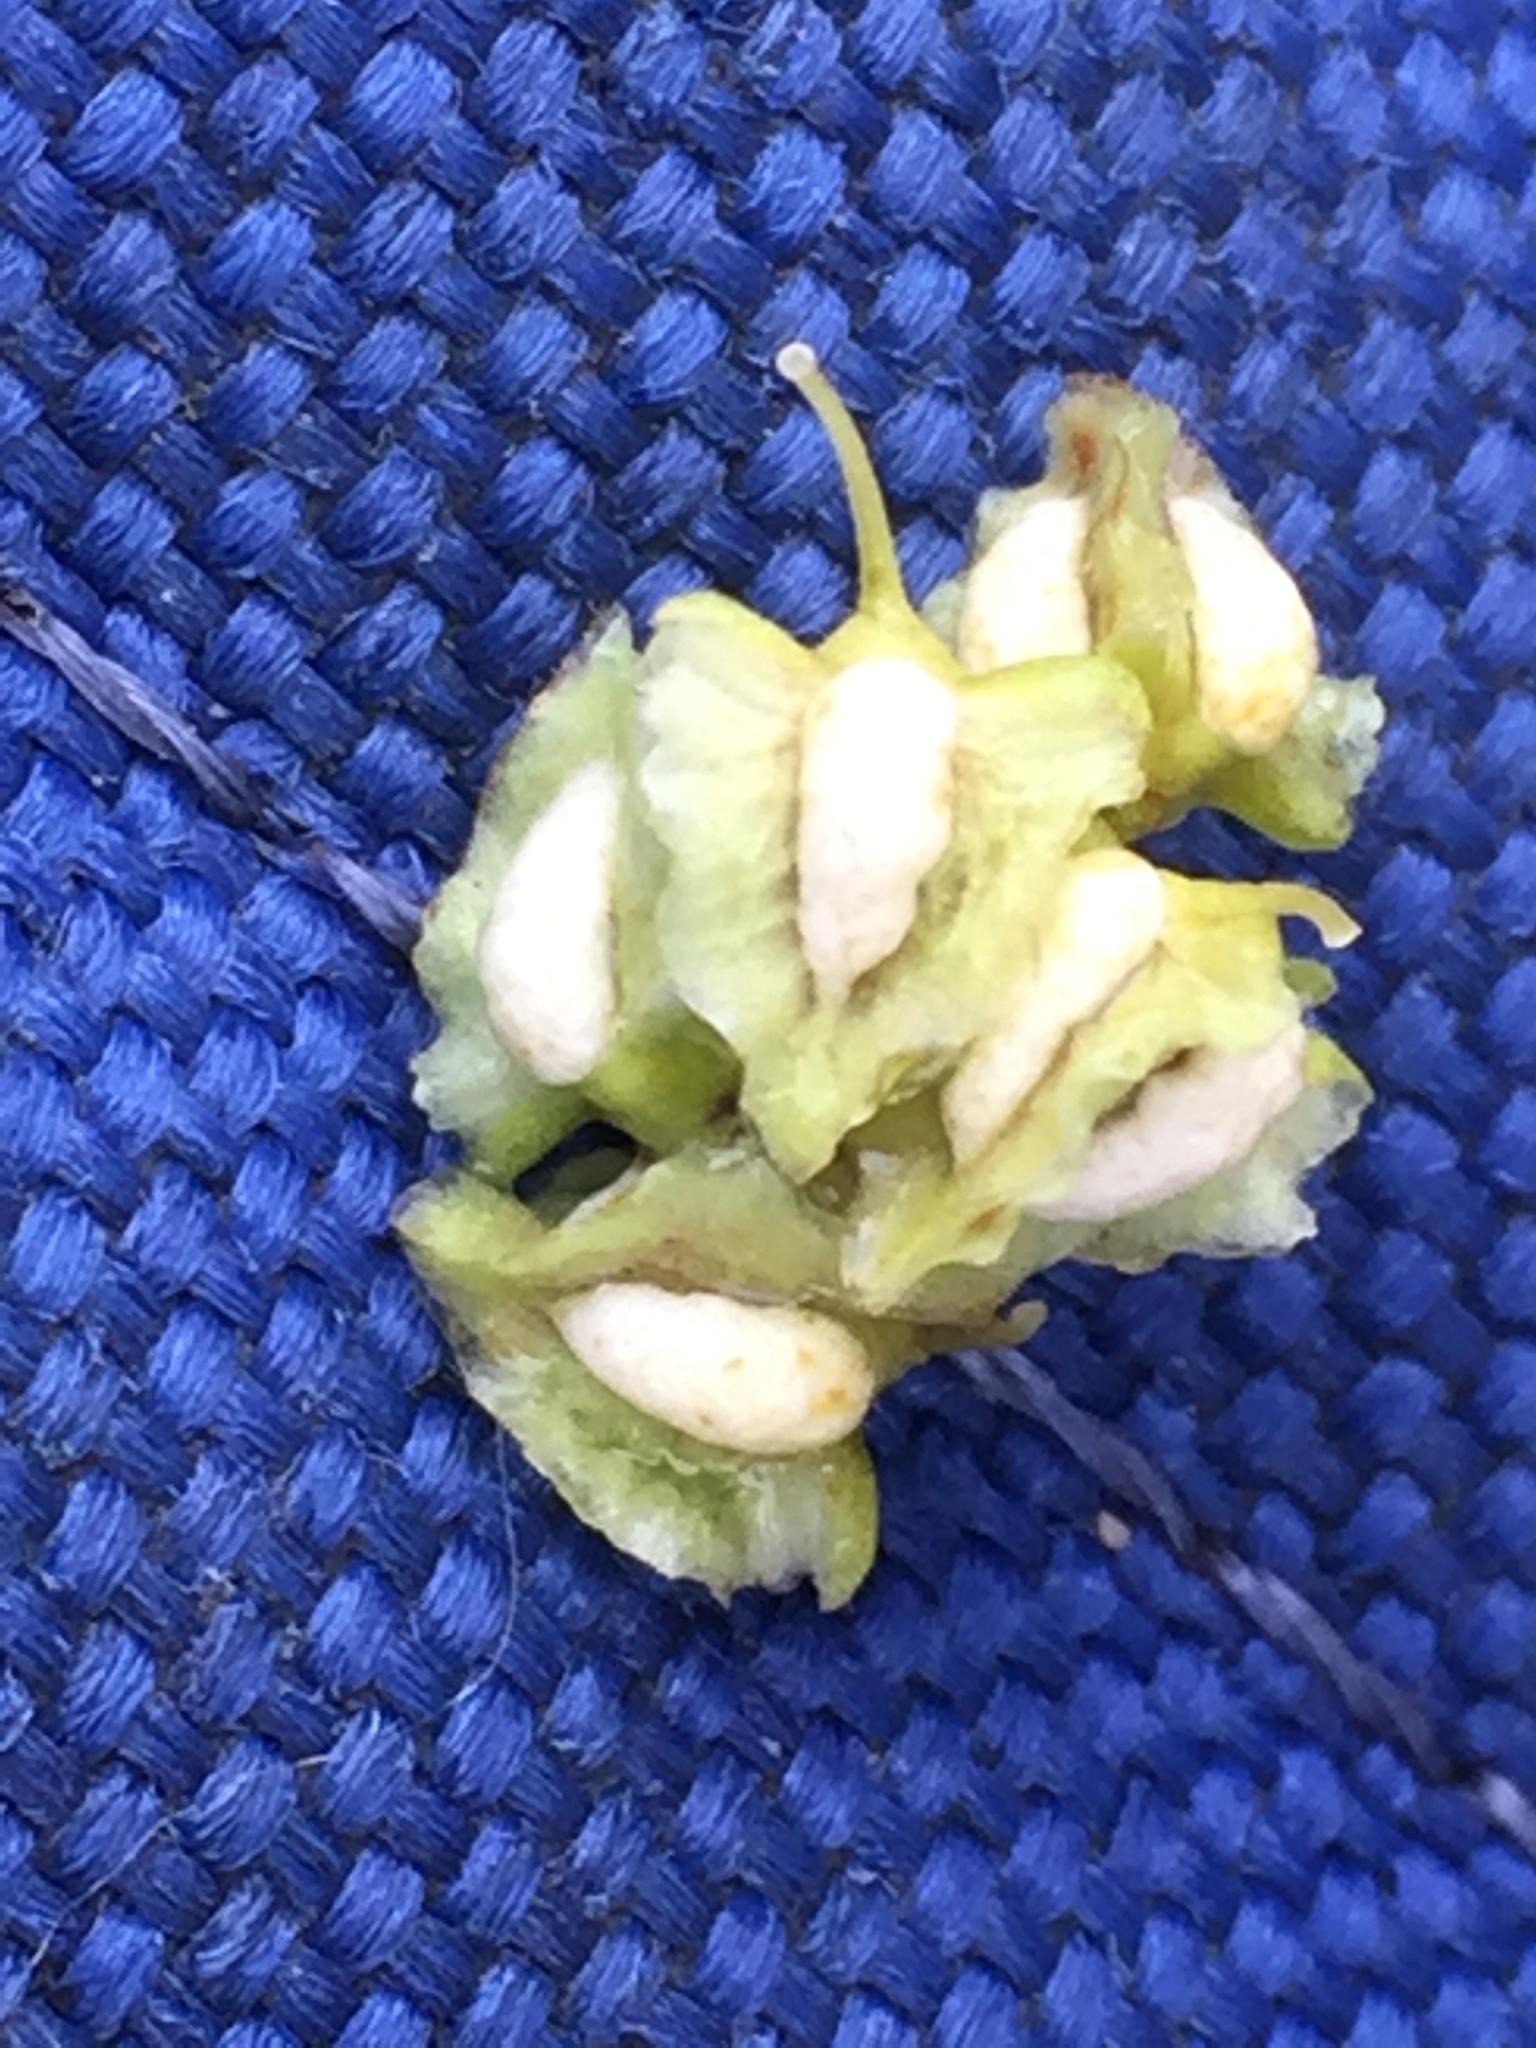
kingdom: Plantae
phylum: Tracheophyta
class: Magnoliopsida
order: Caryophyllales
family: Polygonaceae
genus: Rumex
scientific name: Rumex salicifolius
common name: Willow-leaved dock
